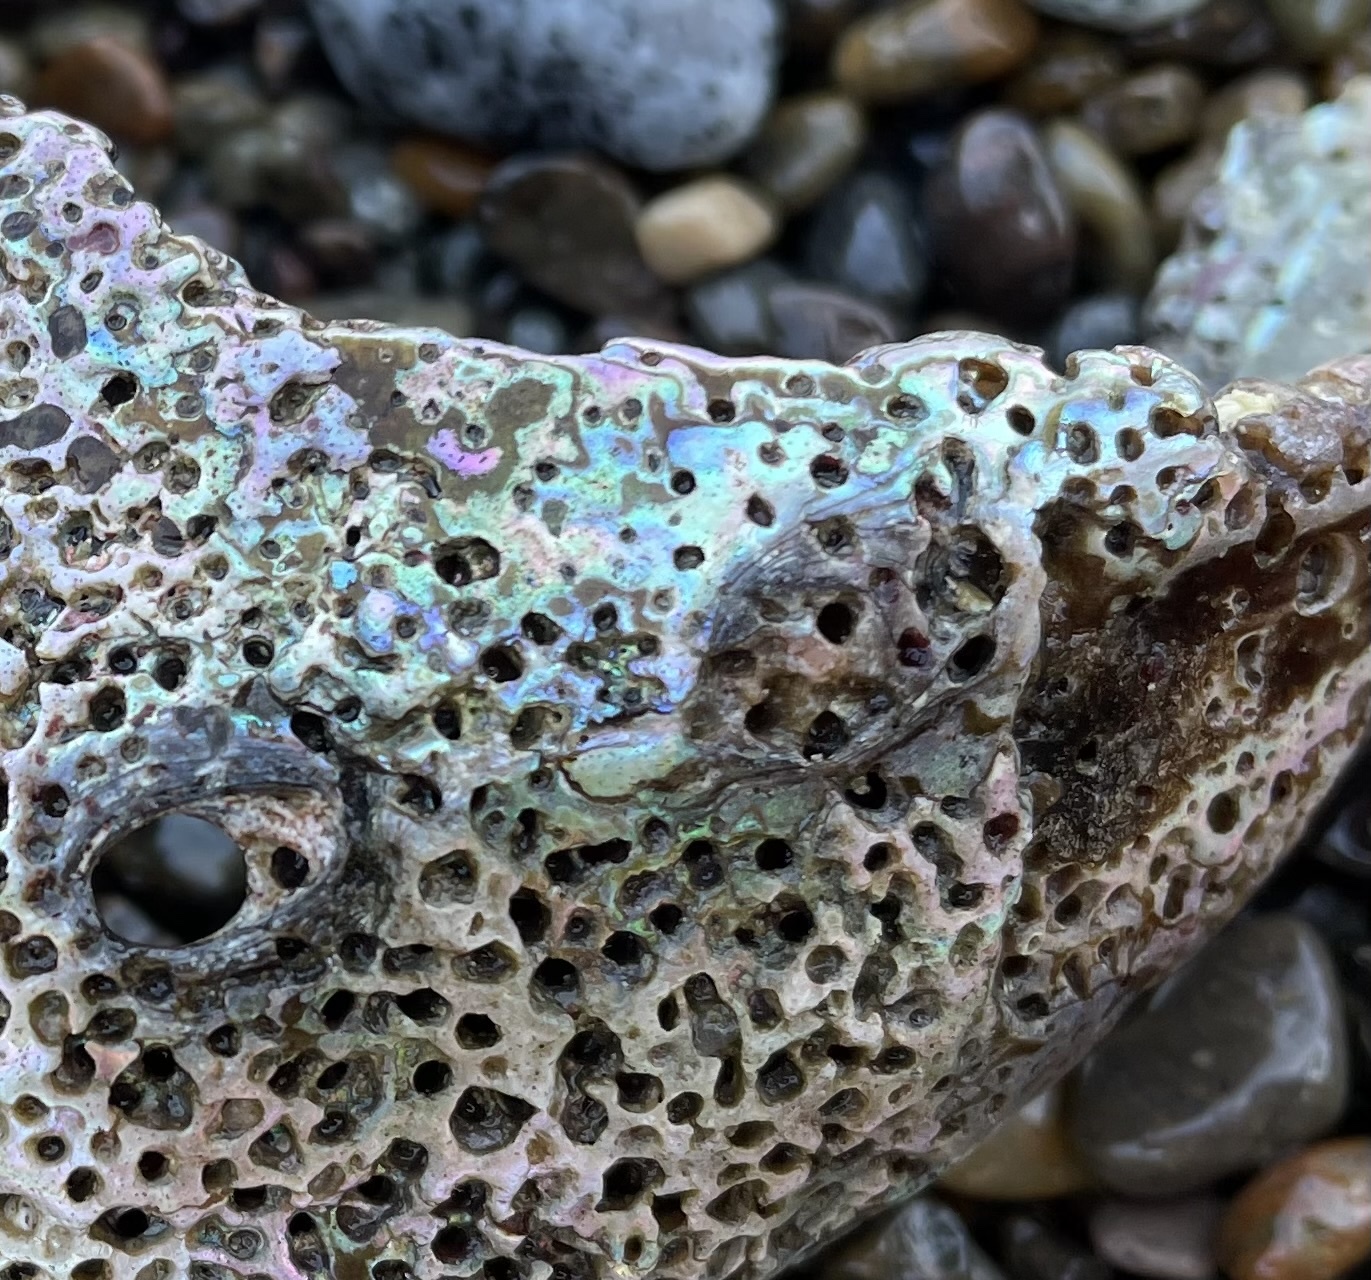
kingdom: Animalia
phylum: Mollusca
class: Gastropoda
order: Lepetellida
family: Haliotidae
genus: Haliotis
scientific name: Haliotis rufescens
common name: Red abalone
